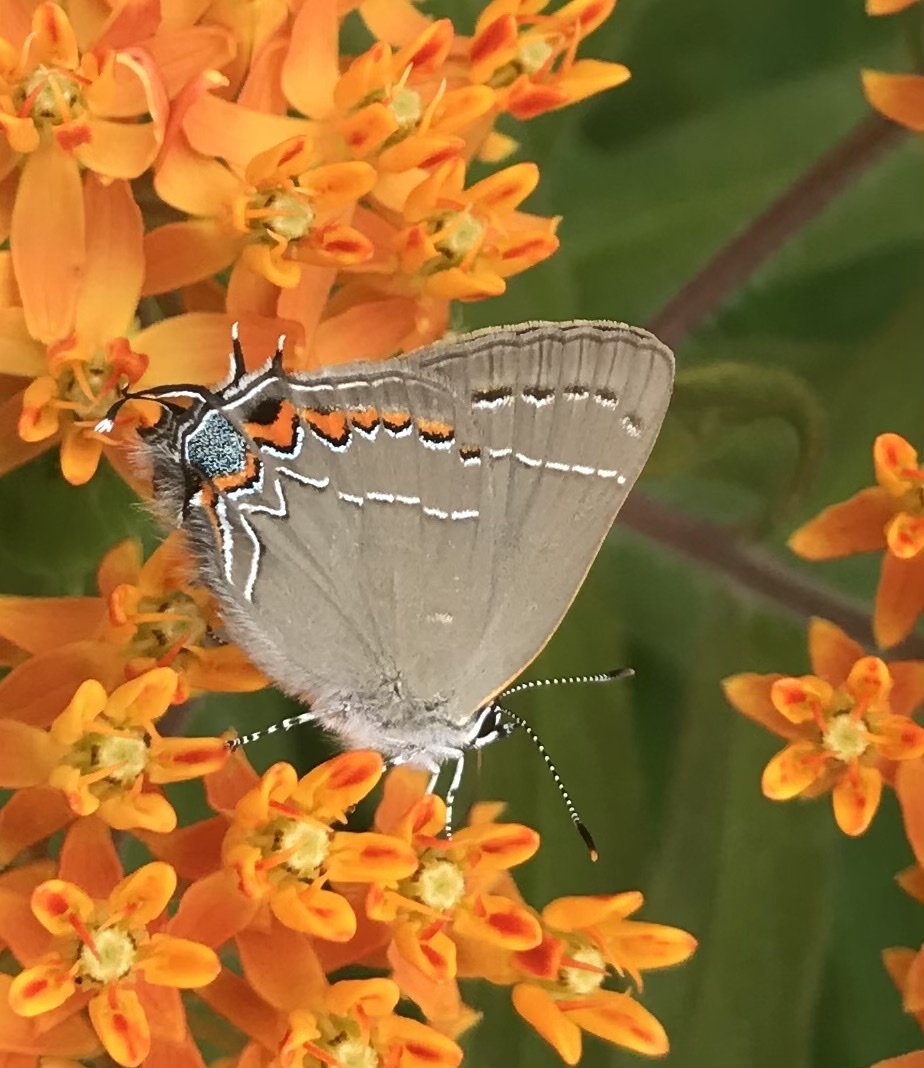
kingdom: Animalia
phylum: Arthropoda
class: Insecta
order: Lepidoptera
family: Lycaenidae
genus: Fixsenia
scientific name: Fixsenia favonius
